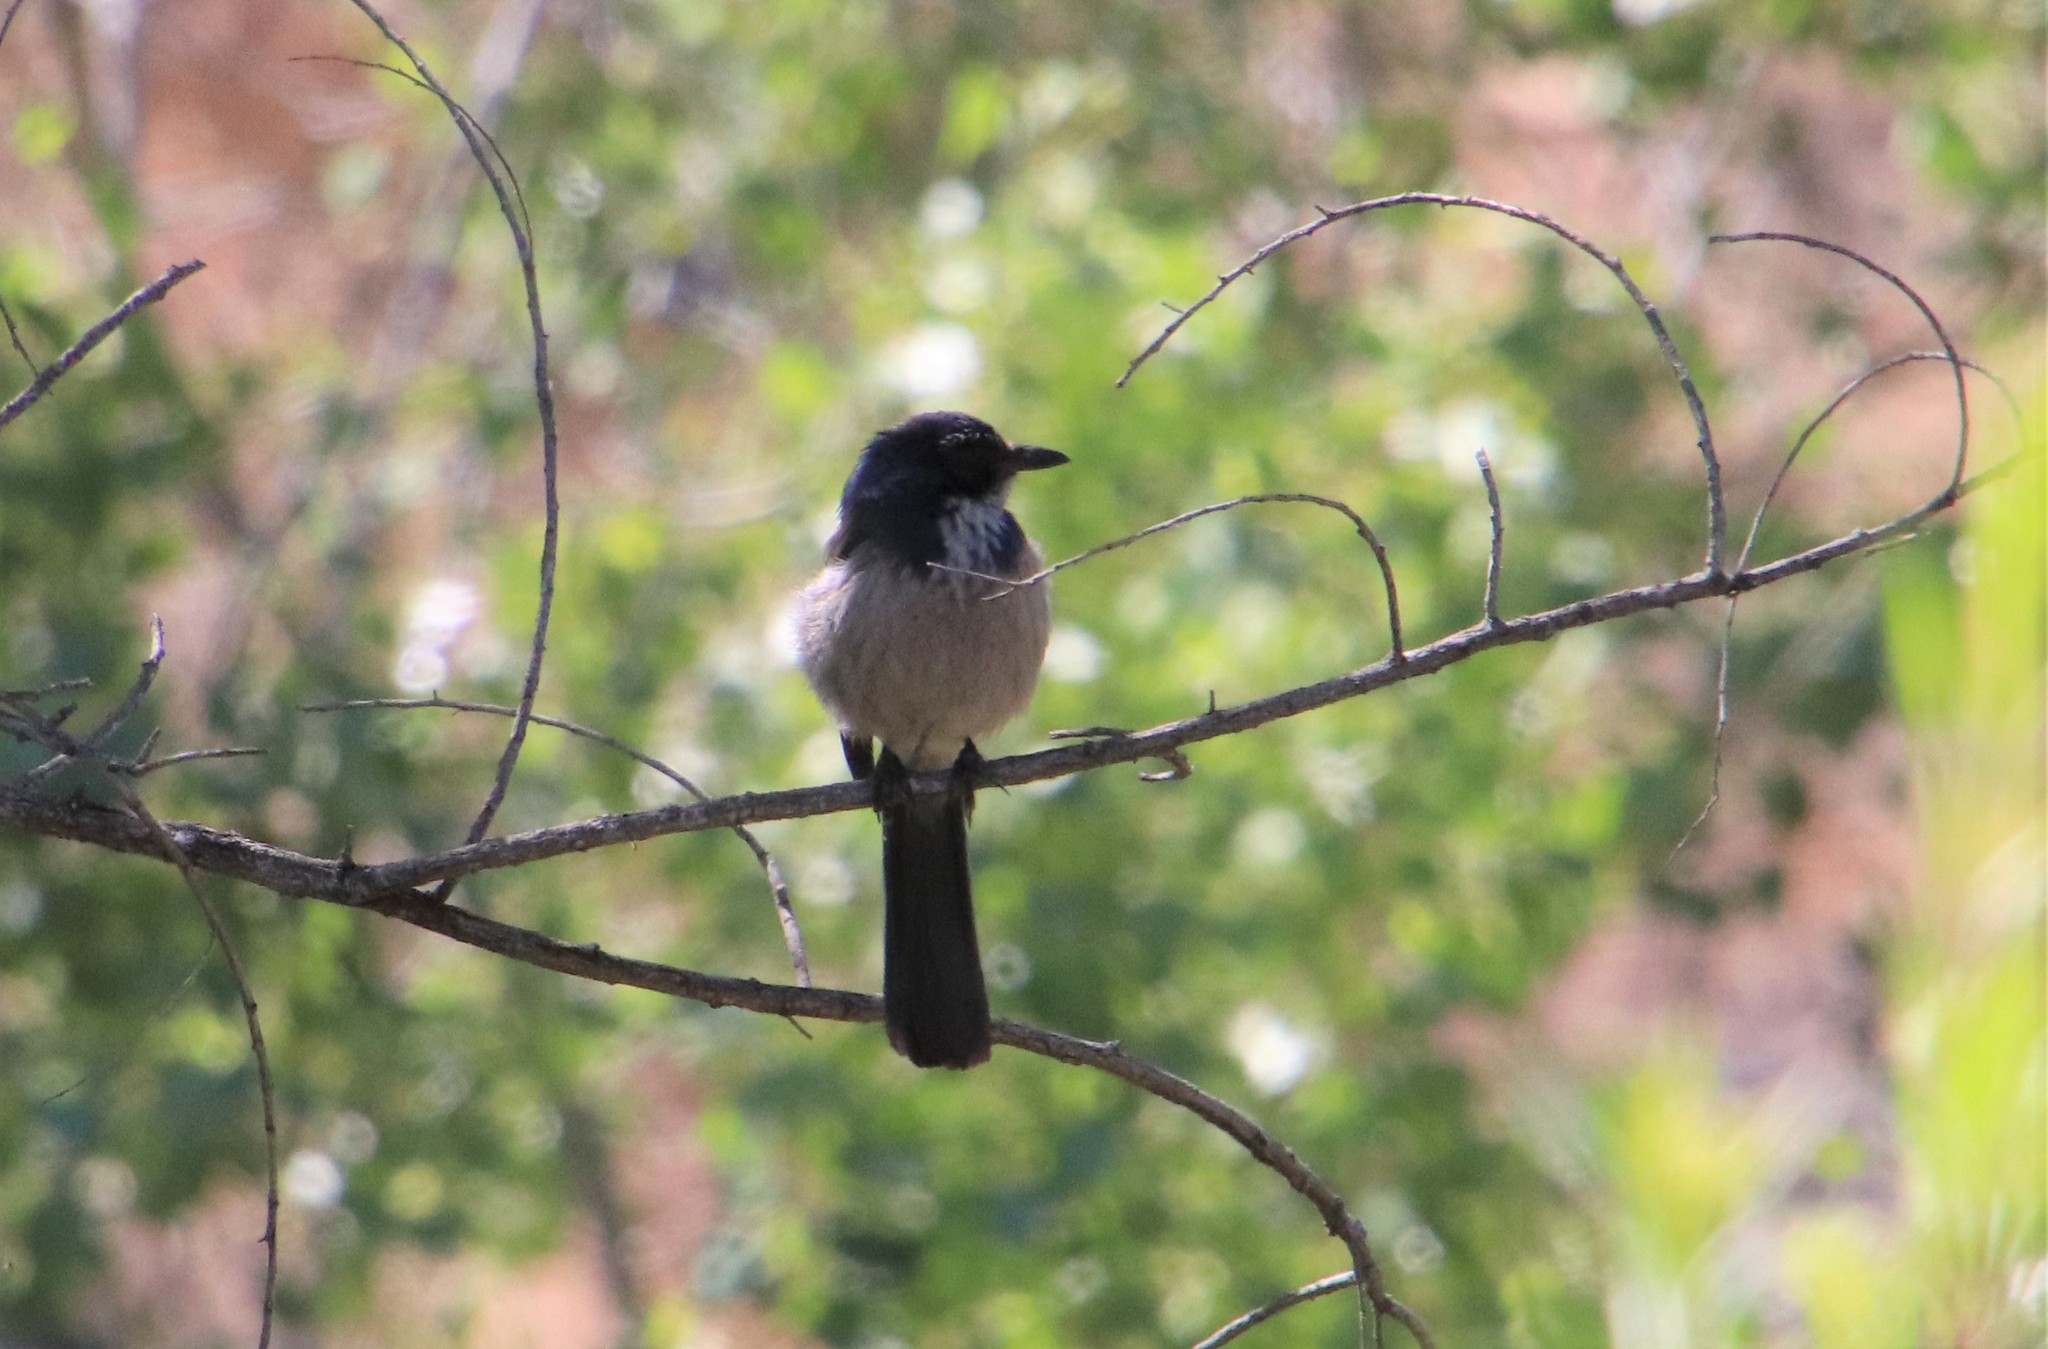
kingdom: Animalia
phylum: Chordata
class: Aves
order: Passeriformes
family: Corvidae
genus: Aphelocoma
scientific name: Aphelocoma californica
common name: California scrub-jay
